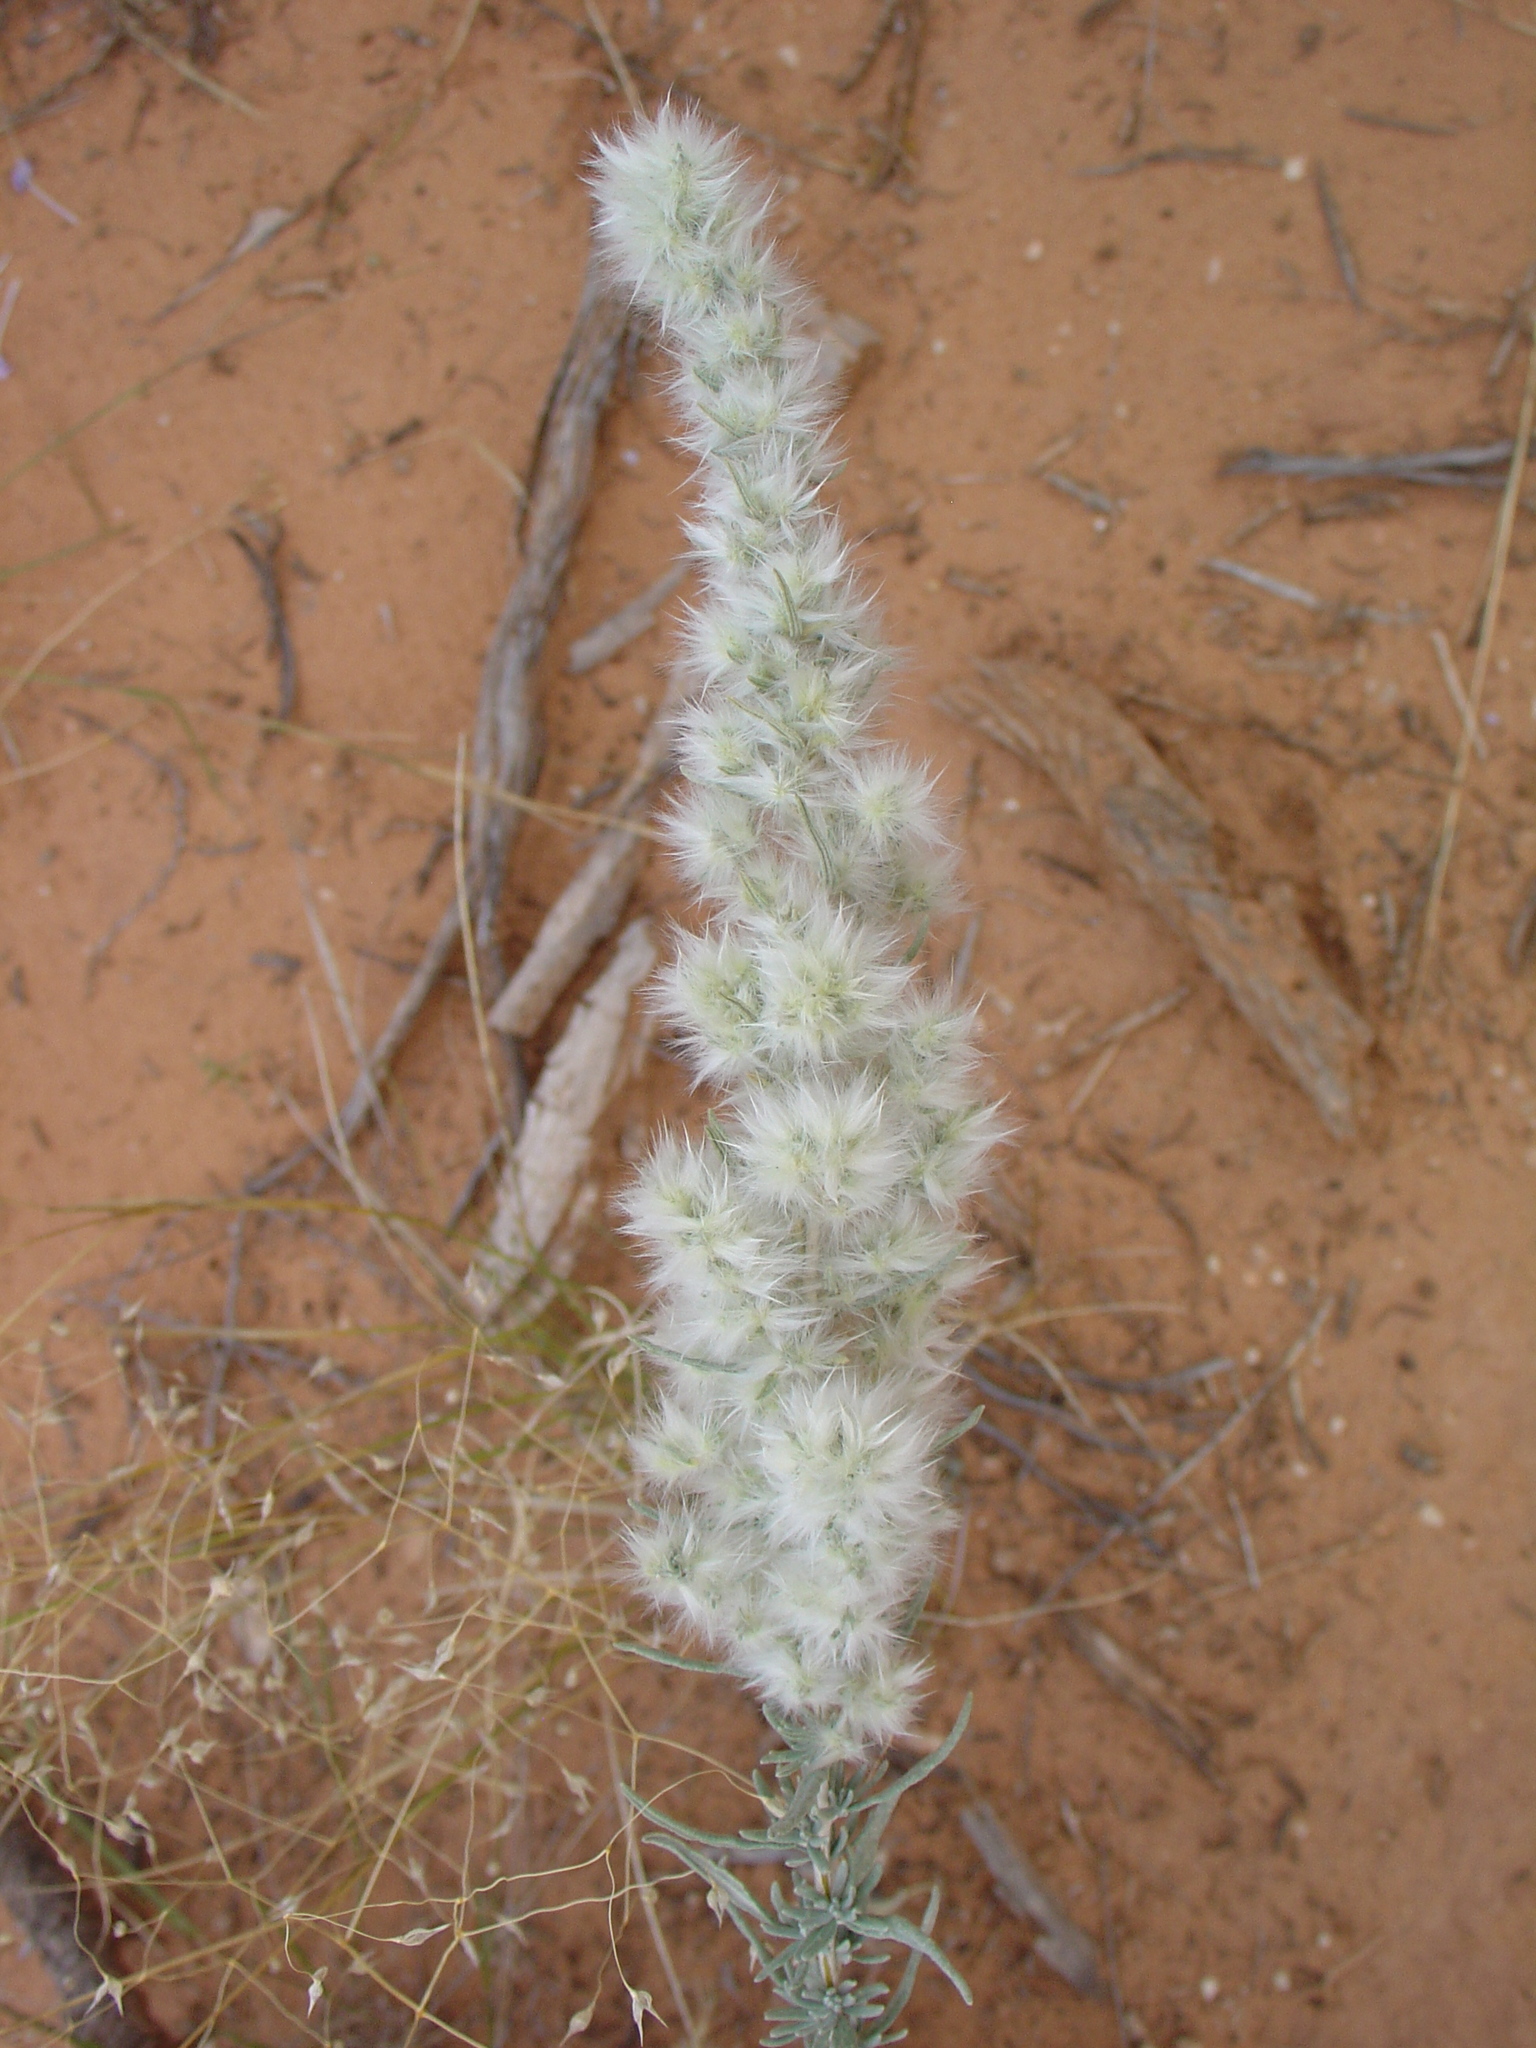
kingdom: Plantae
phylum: Tracheophyta
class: Magnoliopsida
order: Caryophyllales
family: Amaranthaceae
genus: Krascheninnikovia
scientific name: Krascheninnikovia lanata
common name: Winterfat
